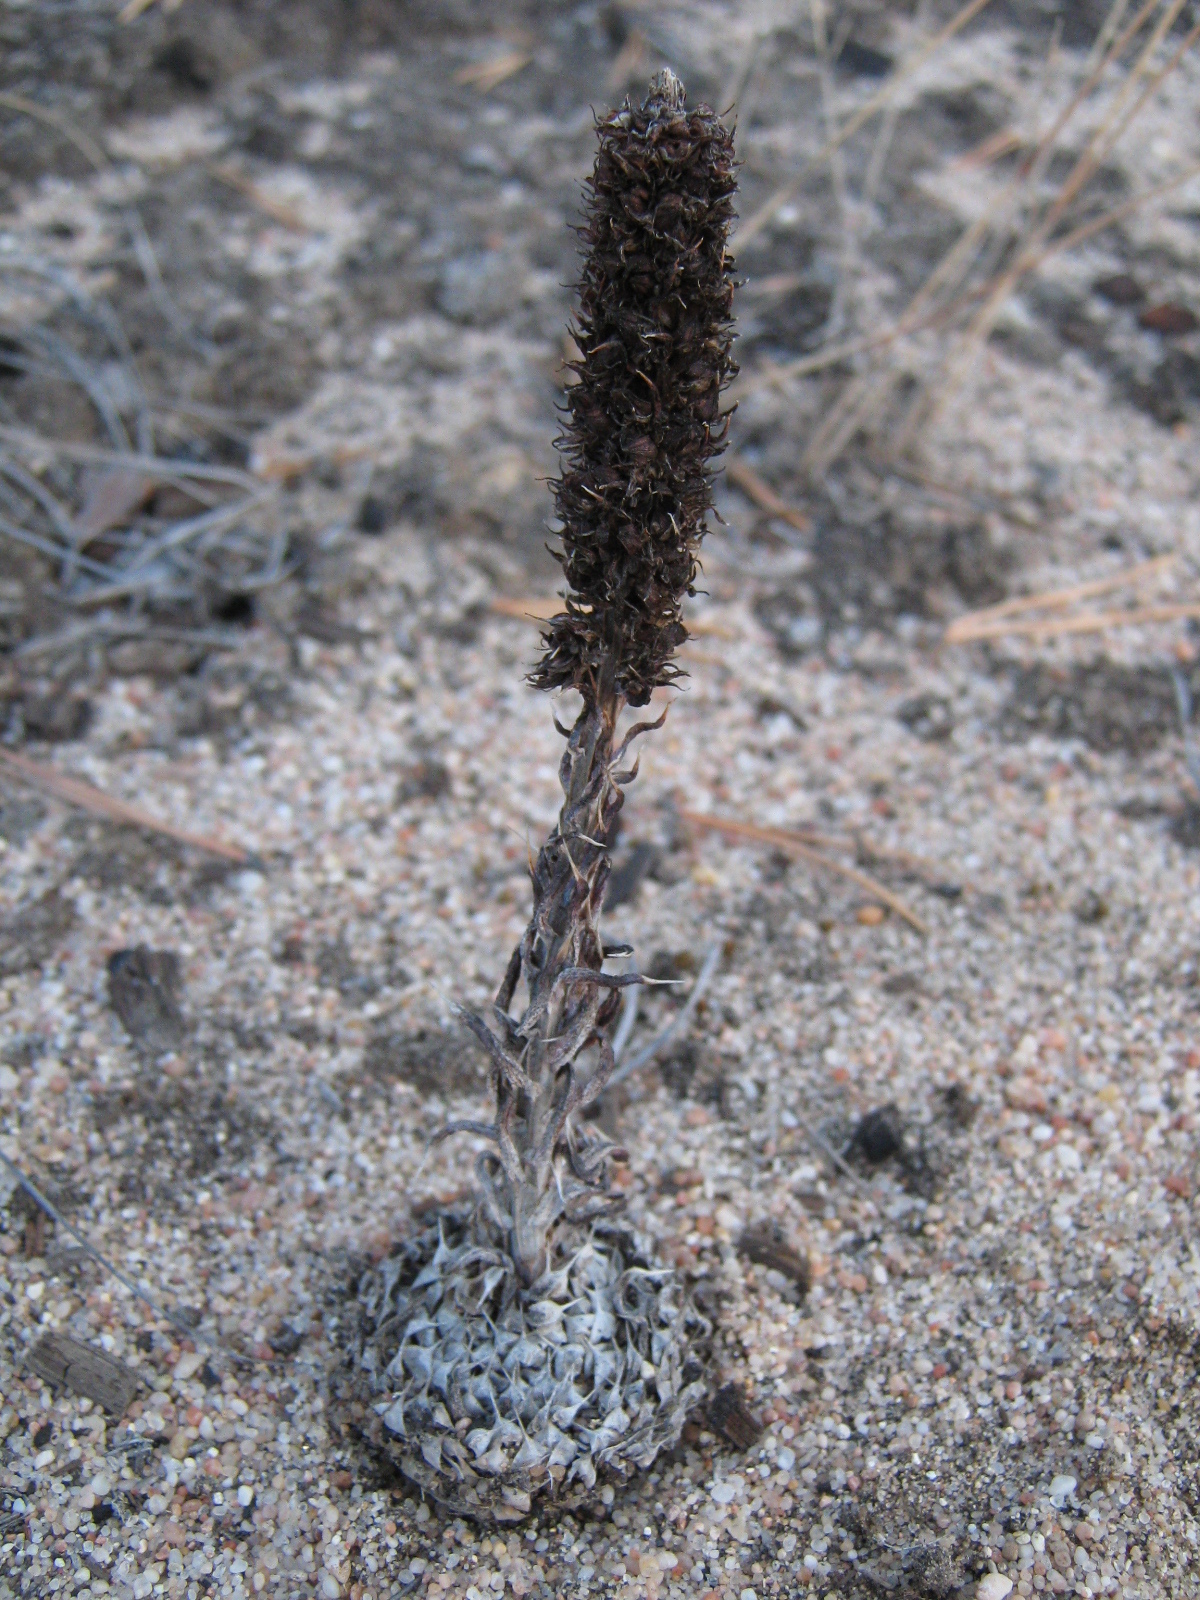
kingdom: Plantae
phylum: Tracheophyta
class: Magnoliopsida
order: Saxifragales
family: Crassulaceae
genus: Orostachys
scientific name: Orostachys spinosa
